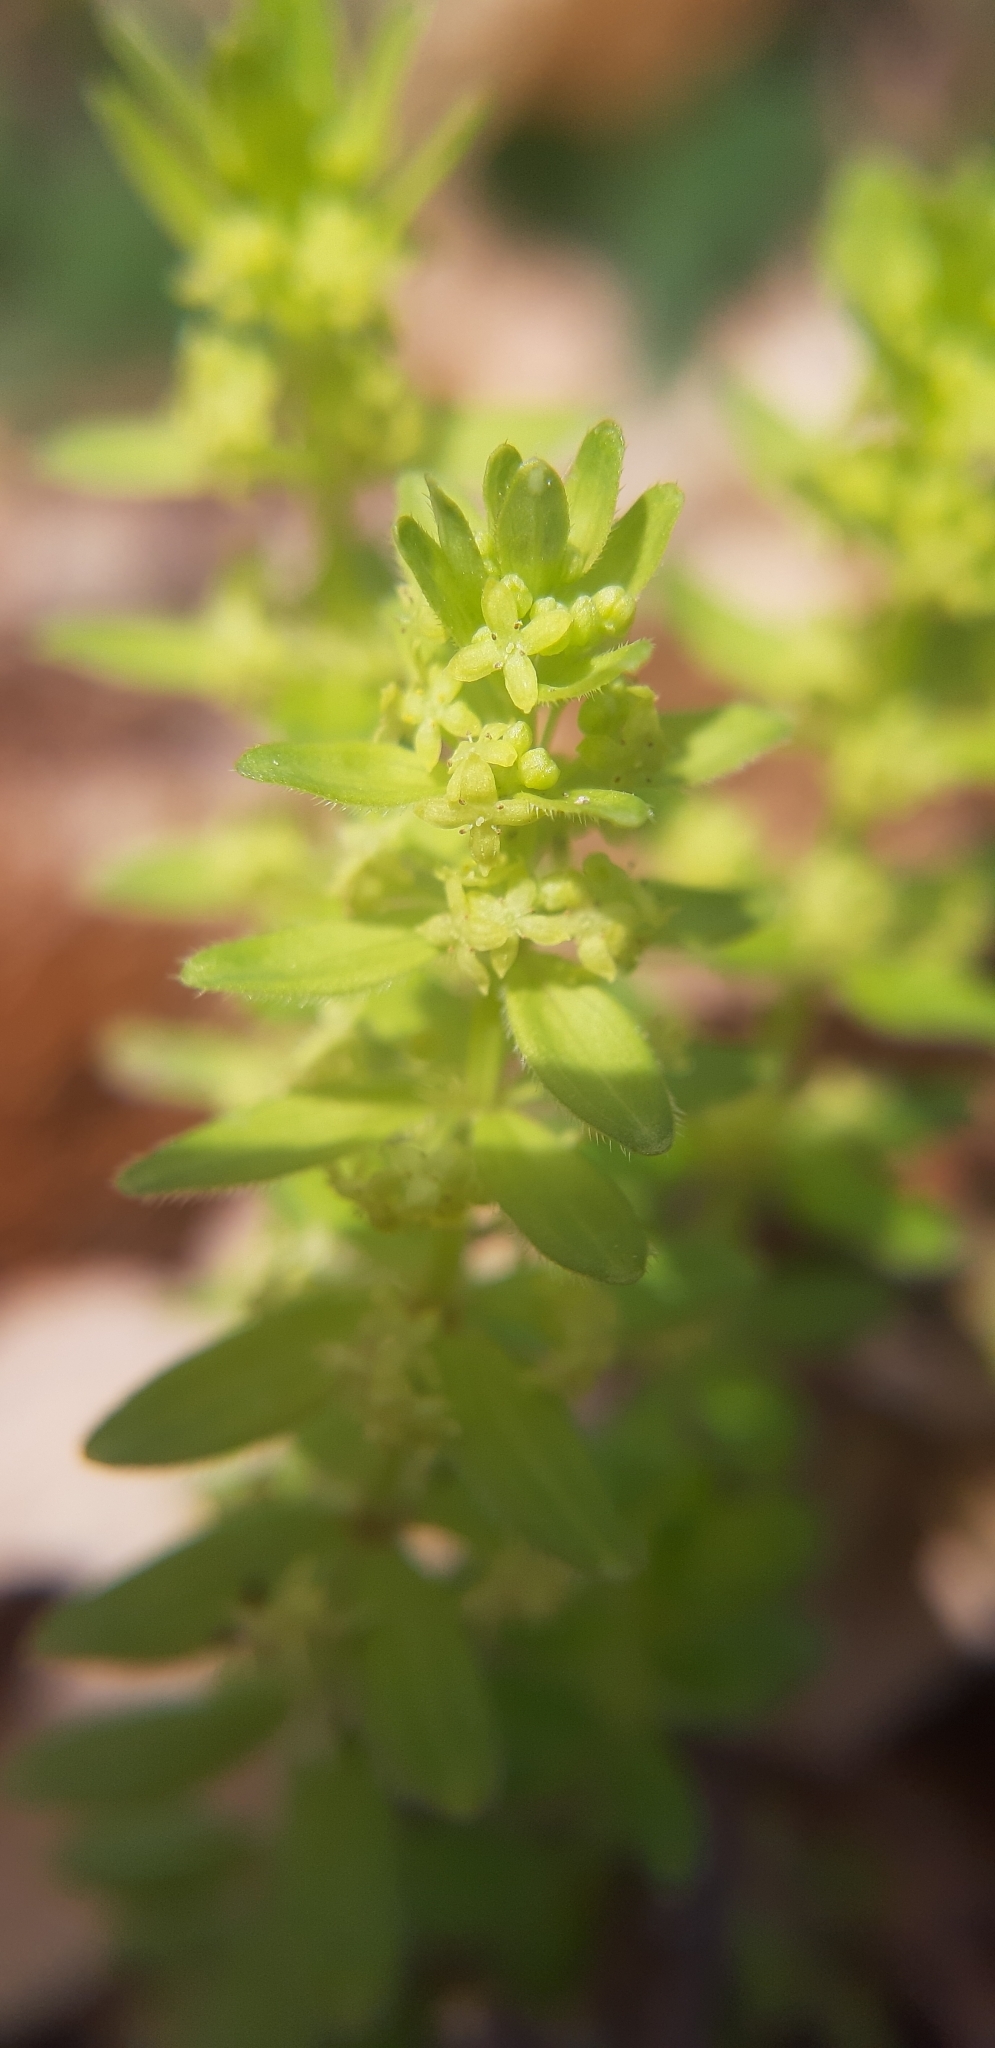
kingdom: Plantae
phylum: Tracheophyta
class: Magnoliopsida
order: Gentianales
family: Rubiaceae
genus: Cruciata
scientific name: Cruciata laevipes
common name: Crosswort
